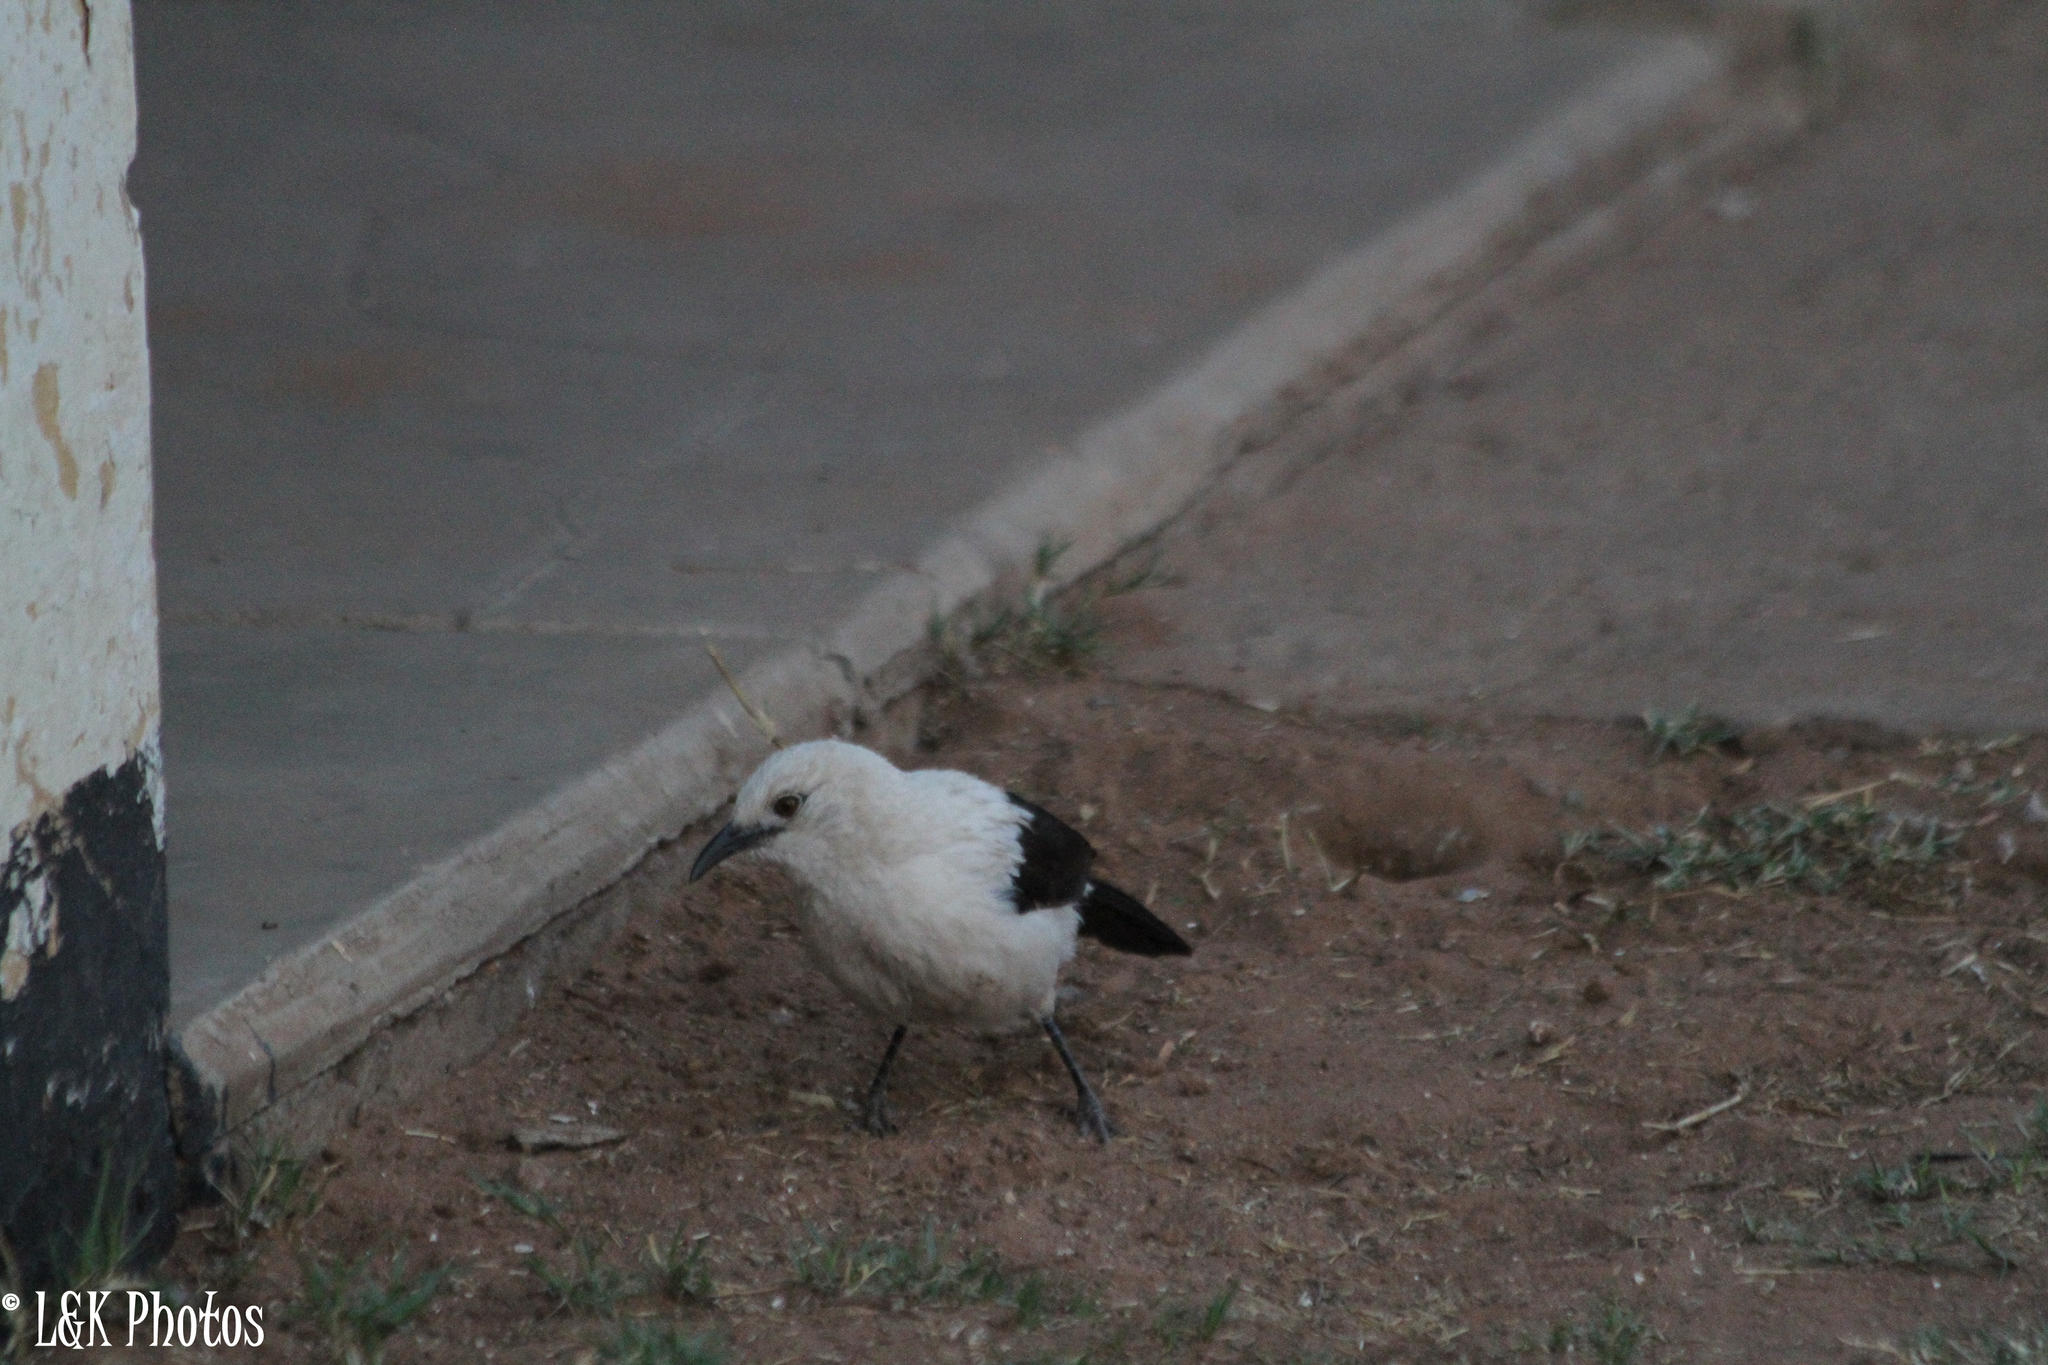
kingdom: Animalia
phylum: Chordata
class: Aves
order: Passeriformes
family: Leiothrichidae
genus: Turdoides
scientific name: Turdoides bicolor
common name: Southern pied babbler
